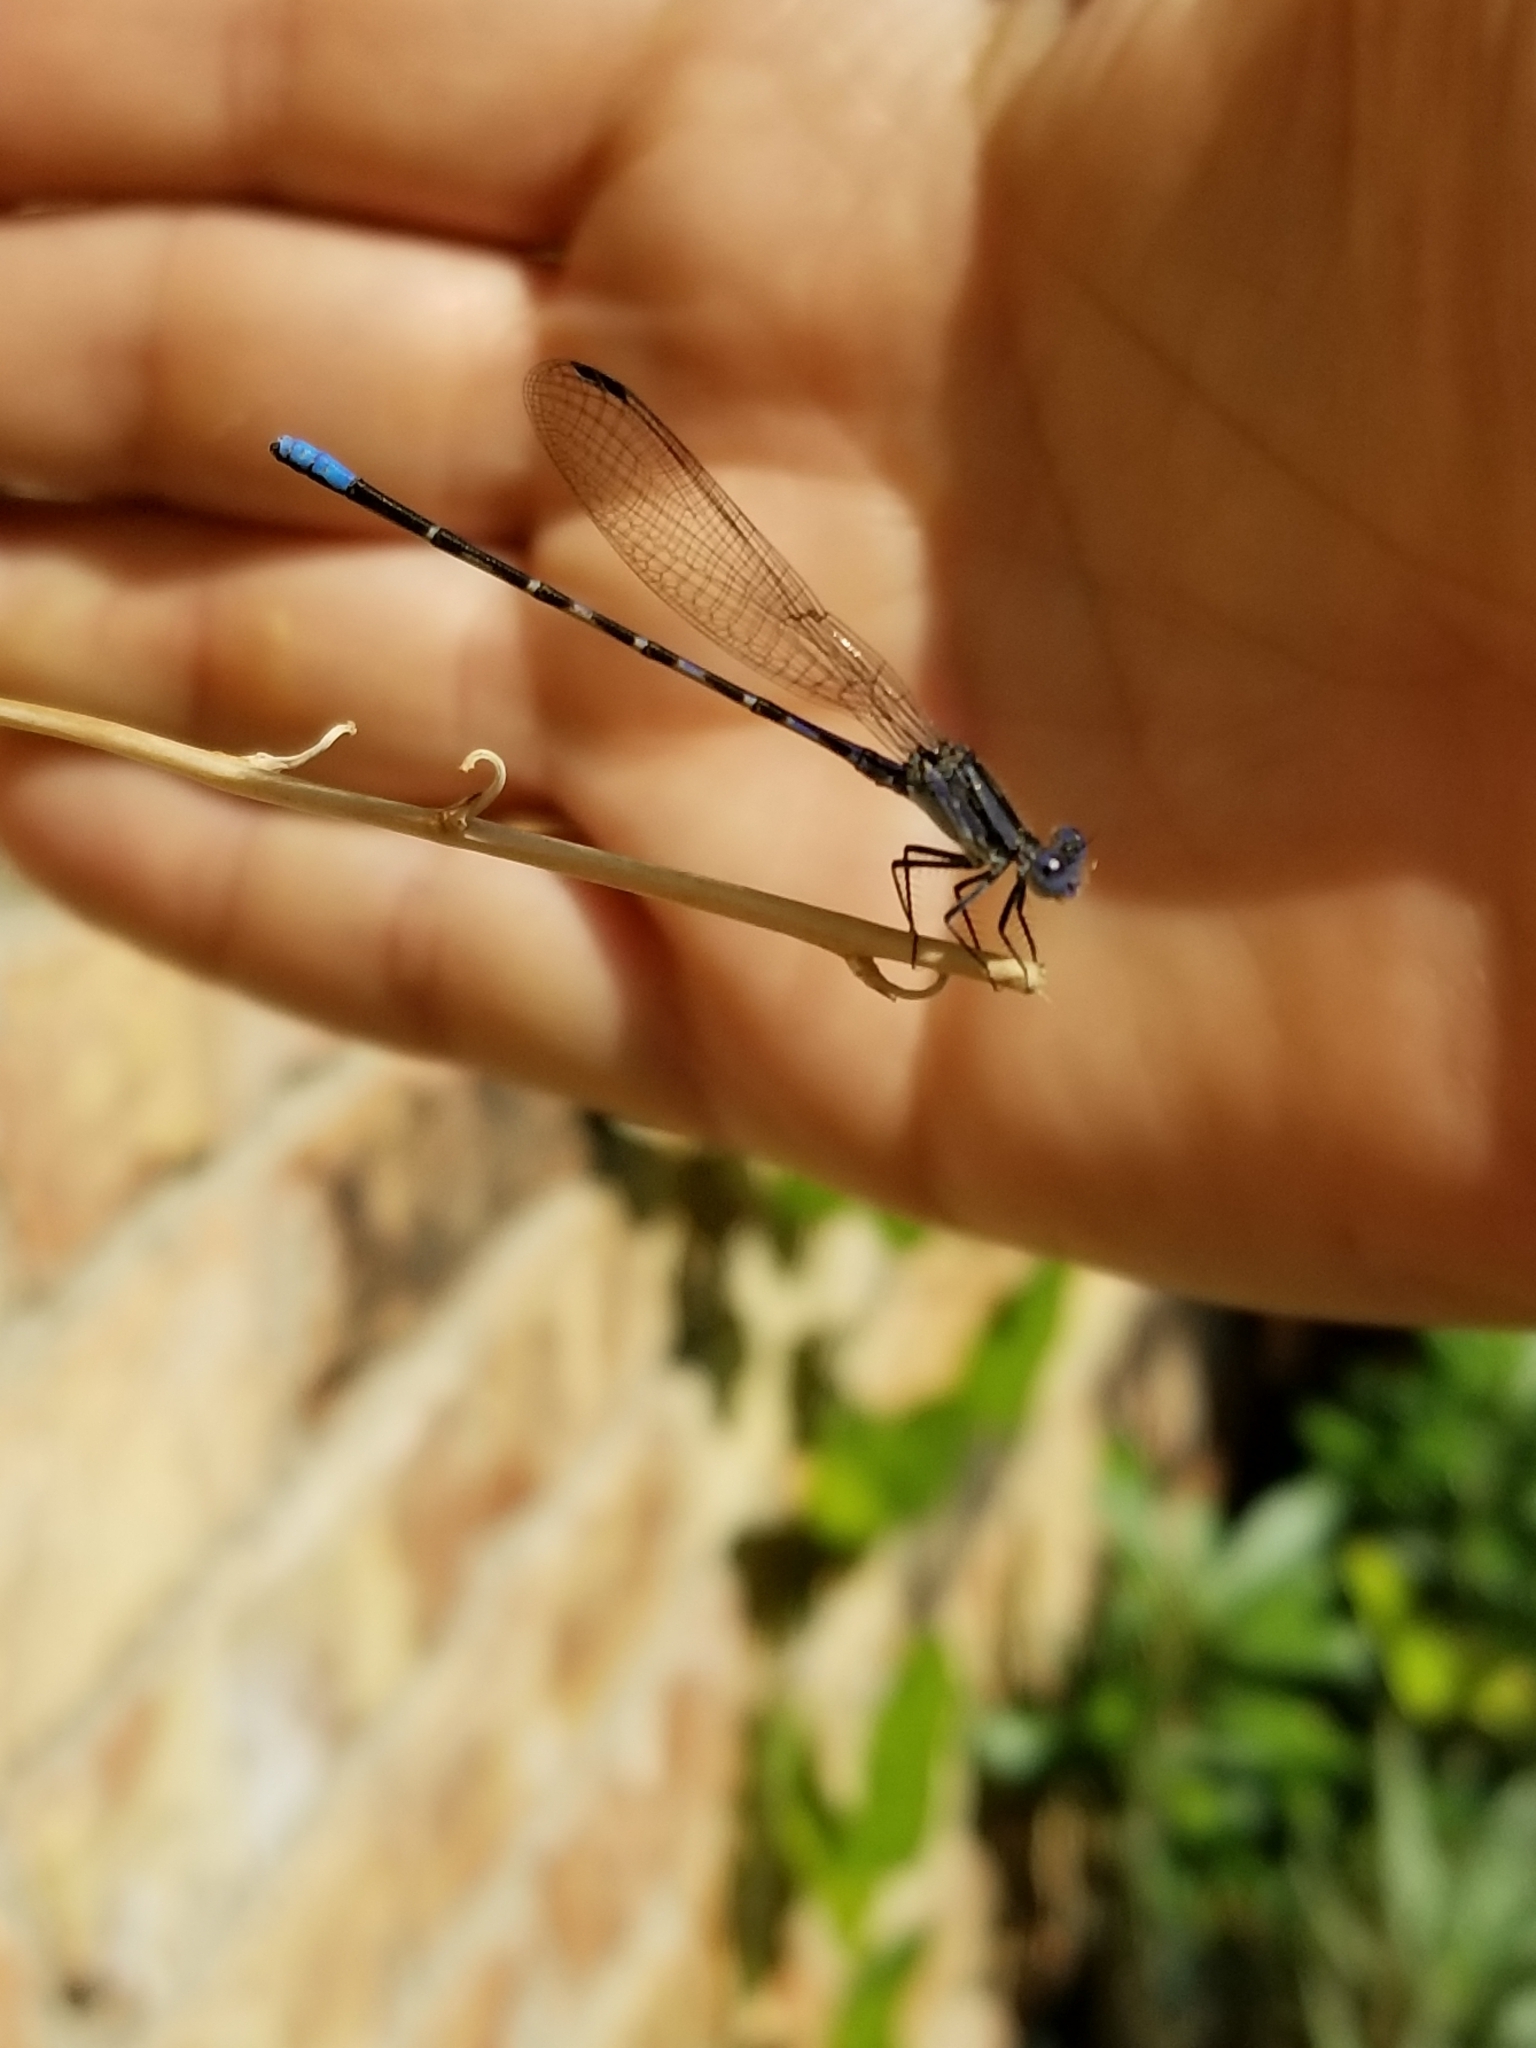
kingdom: Animalia
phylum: Arthropoda
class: Insecta
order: Odonata
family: Coenagrionidae
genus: Argia
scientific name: Argia immunda
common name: Kiowa dancer
